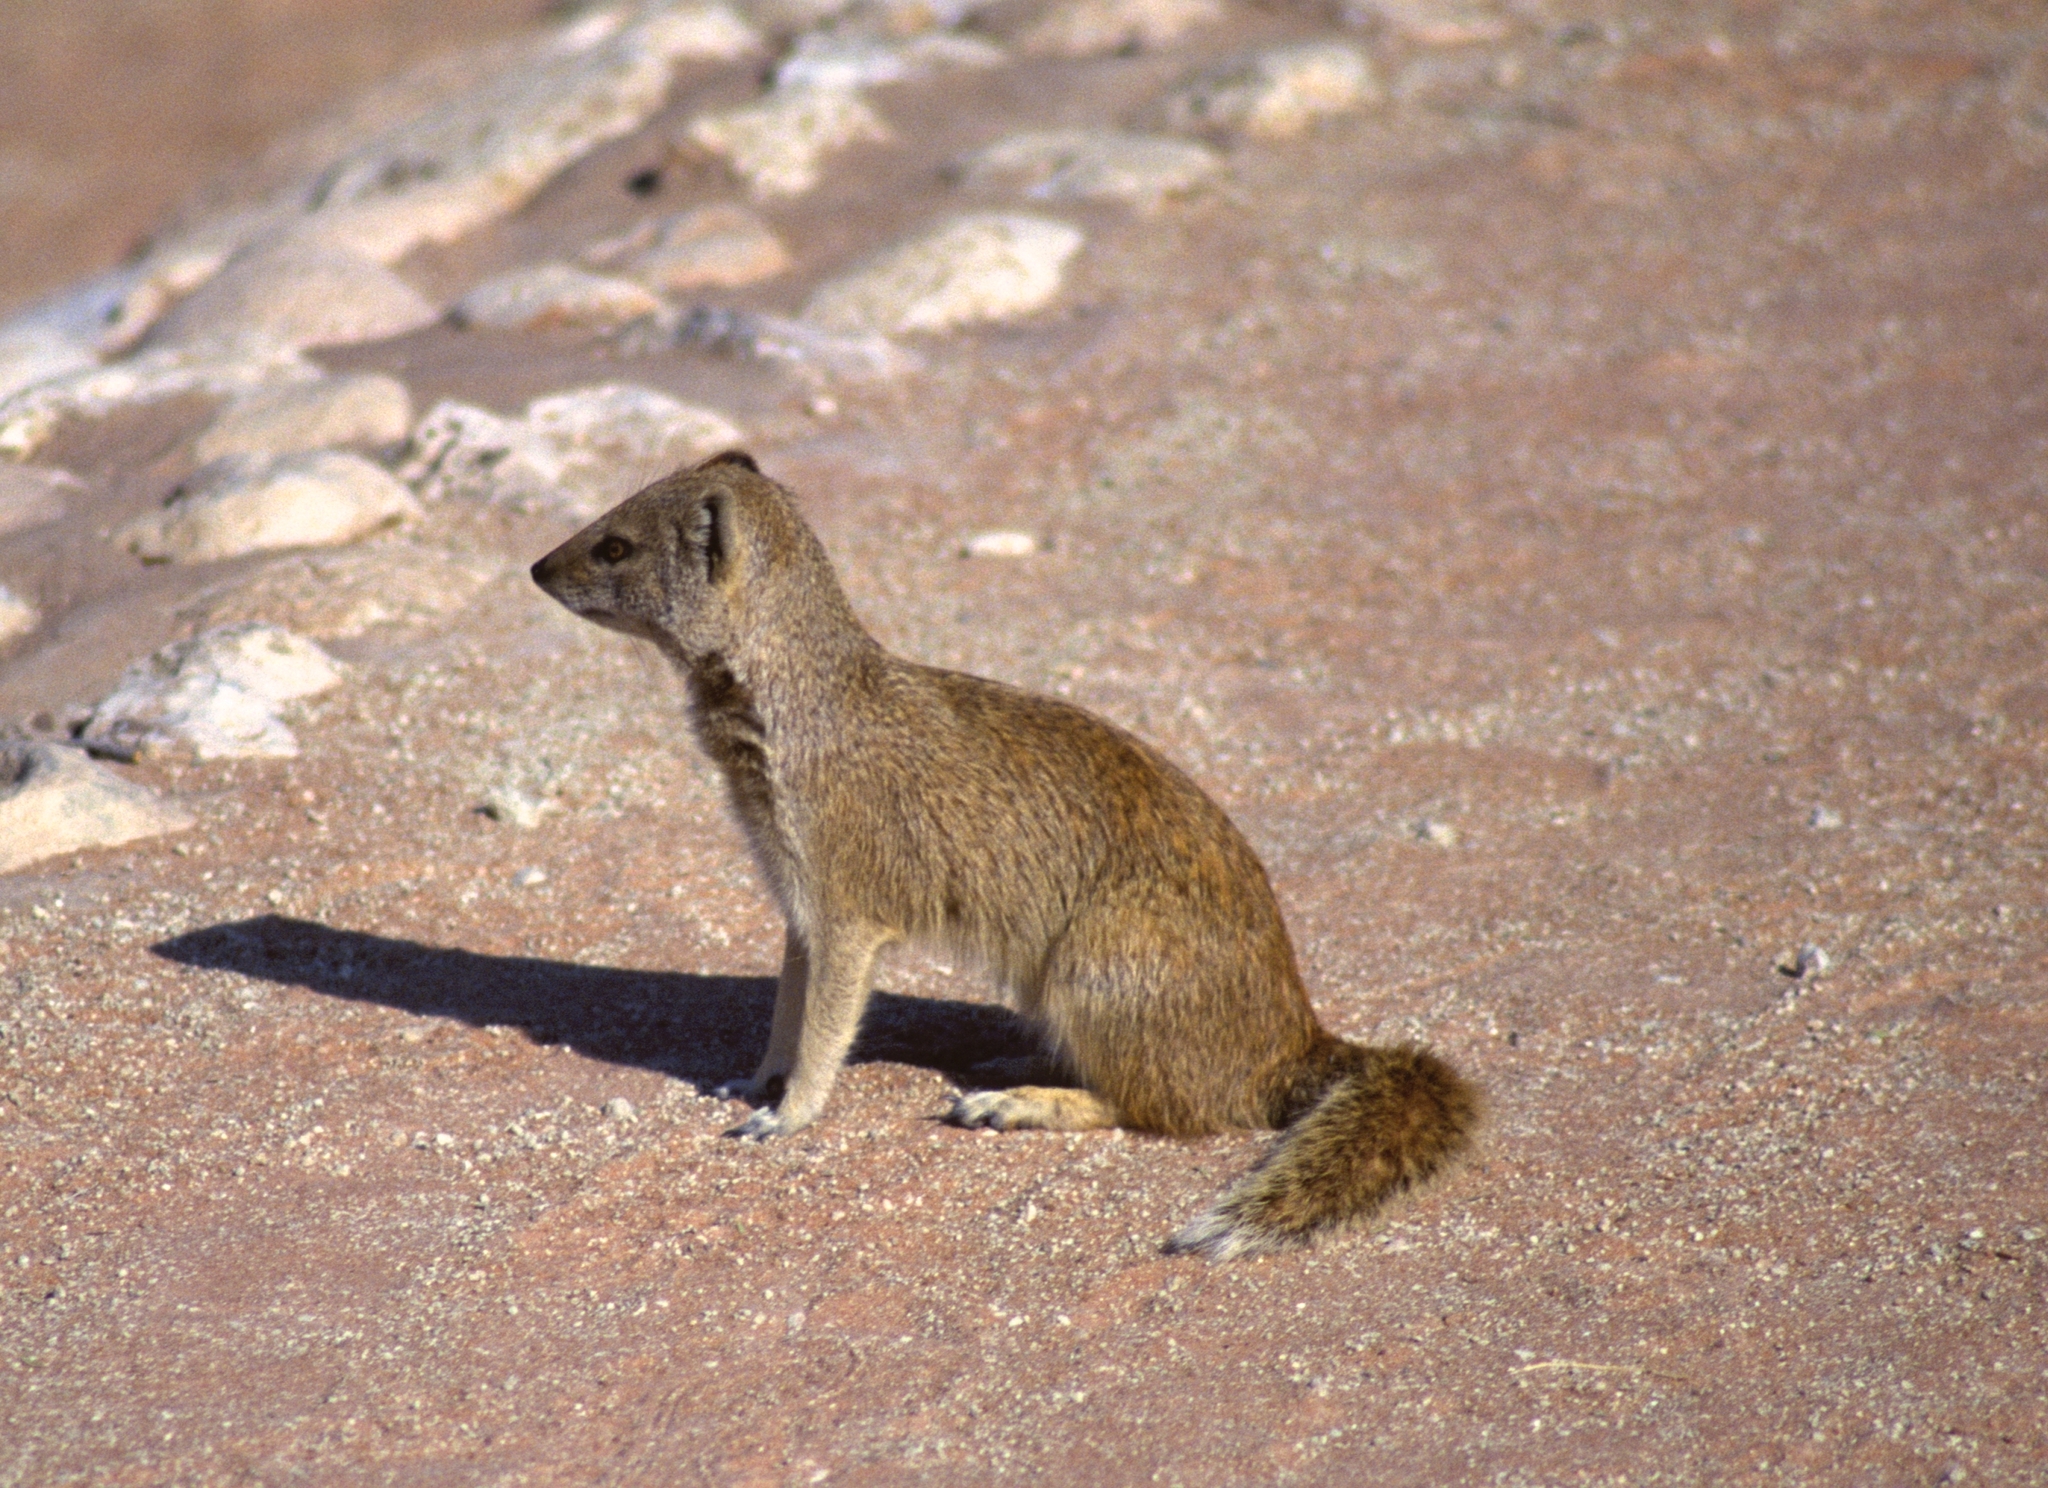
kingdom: Animalia
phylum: Chordata
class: Mammalia
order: Carnivora
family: Herpestidae
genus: Cynictis
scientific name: Cynictis penicillata
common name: Yellow mongoose
